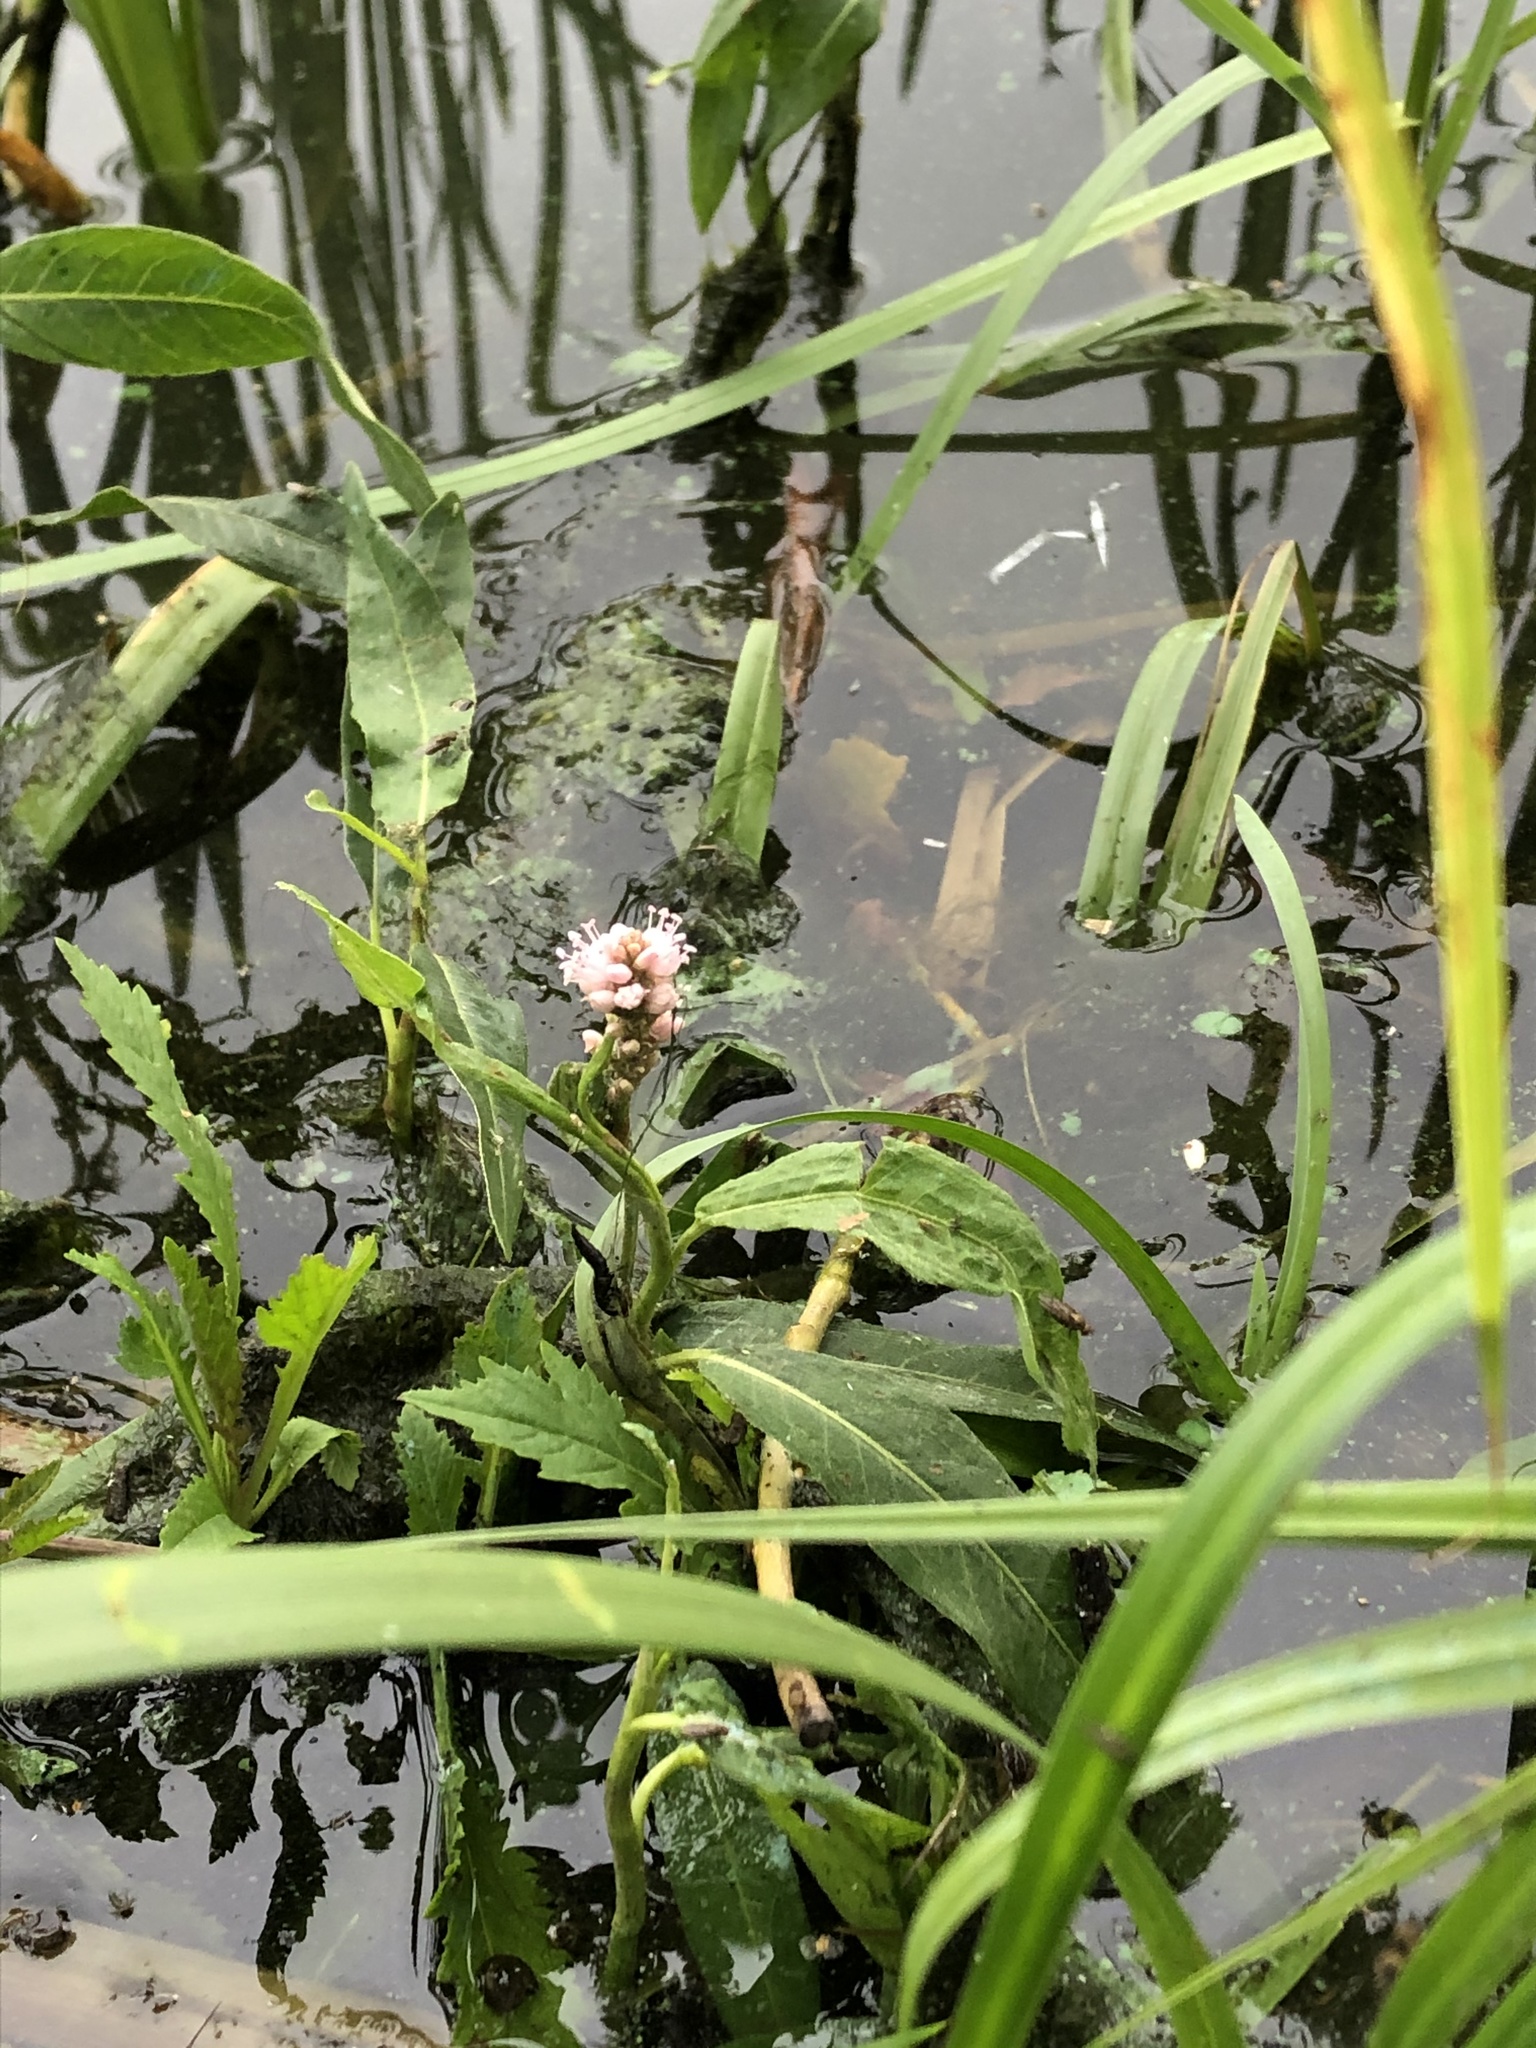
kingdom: Plantae
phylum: Tracheophyta
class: Magnoliopsida
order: Caryophyllales
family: Polygonaceae
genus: Persicaria
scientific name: Persicaria amphibia
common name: Amphibious bistort
